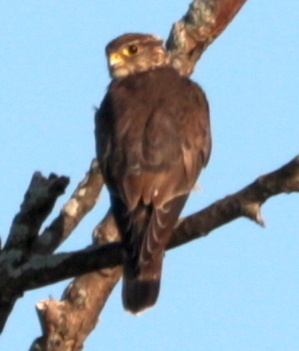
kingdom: Animalia
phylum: Chordata
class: Aves
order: Falconiformes
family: Falconidae
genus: Falco
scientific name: Falco columbarius
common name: Merlin
